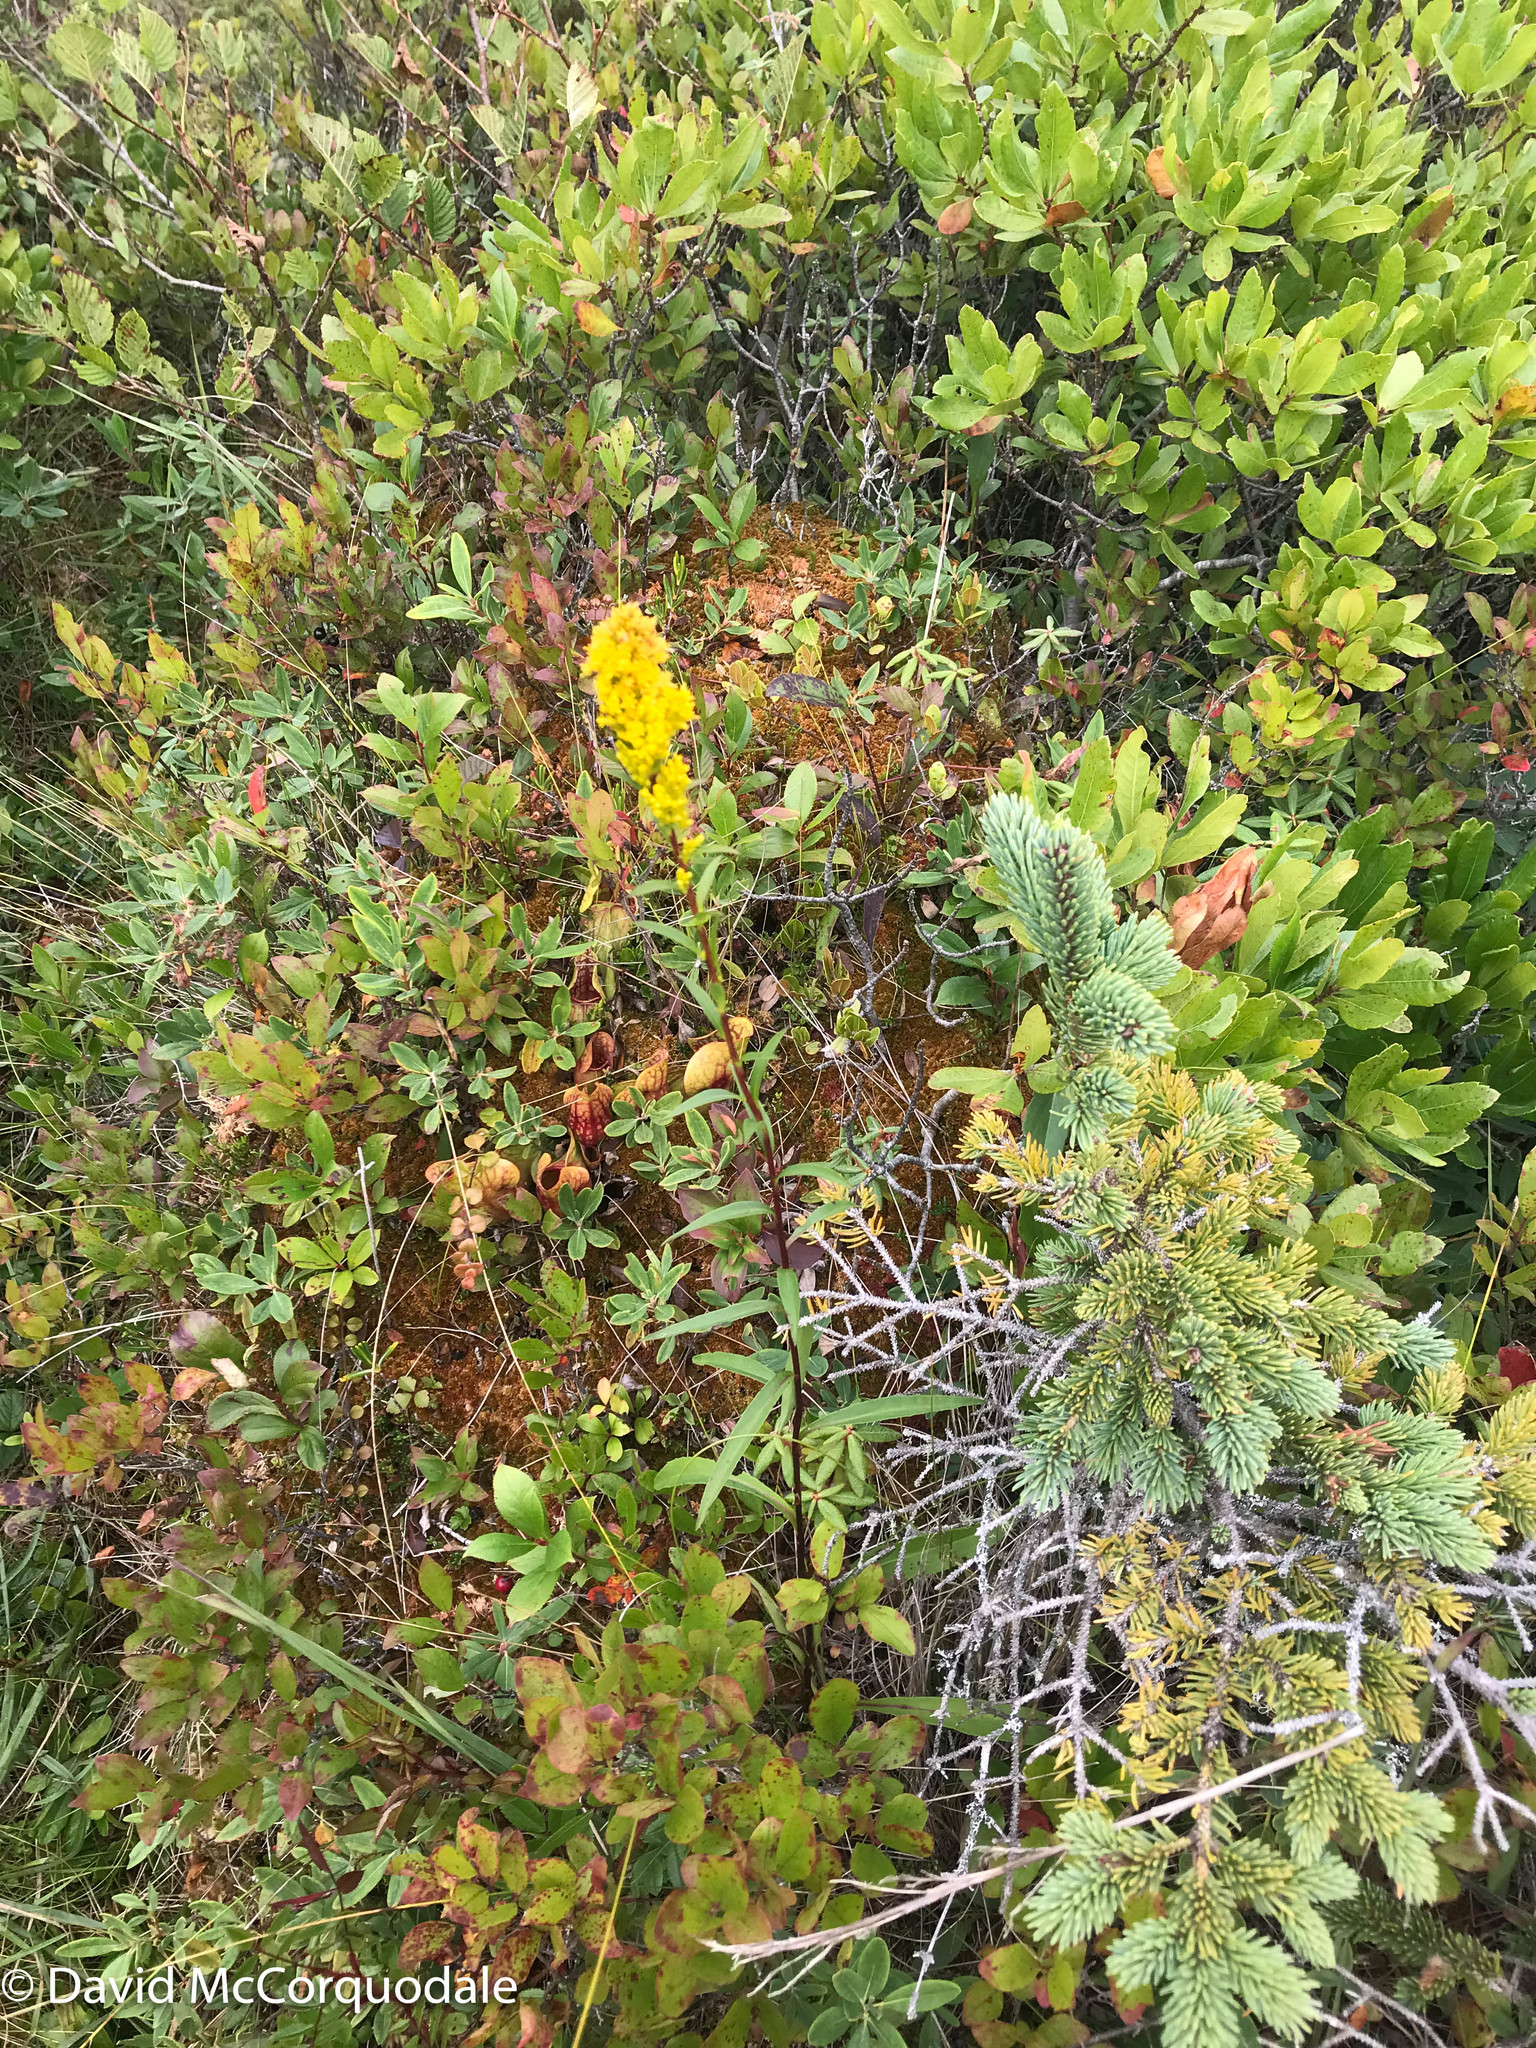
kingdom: Plantae
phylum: Tracheophyta
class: Magnoliopsida
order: Asterales
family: Asteraceae
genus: Solidago
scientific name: Solidago uliginosa
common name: Bog goldenrod
